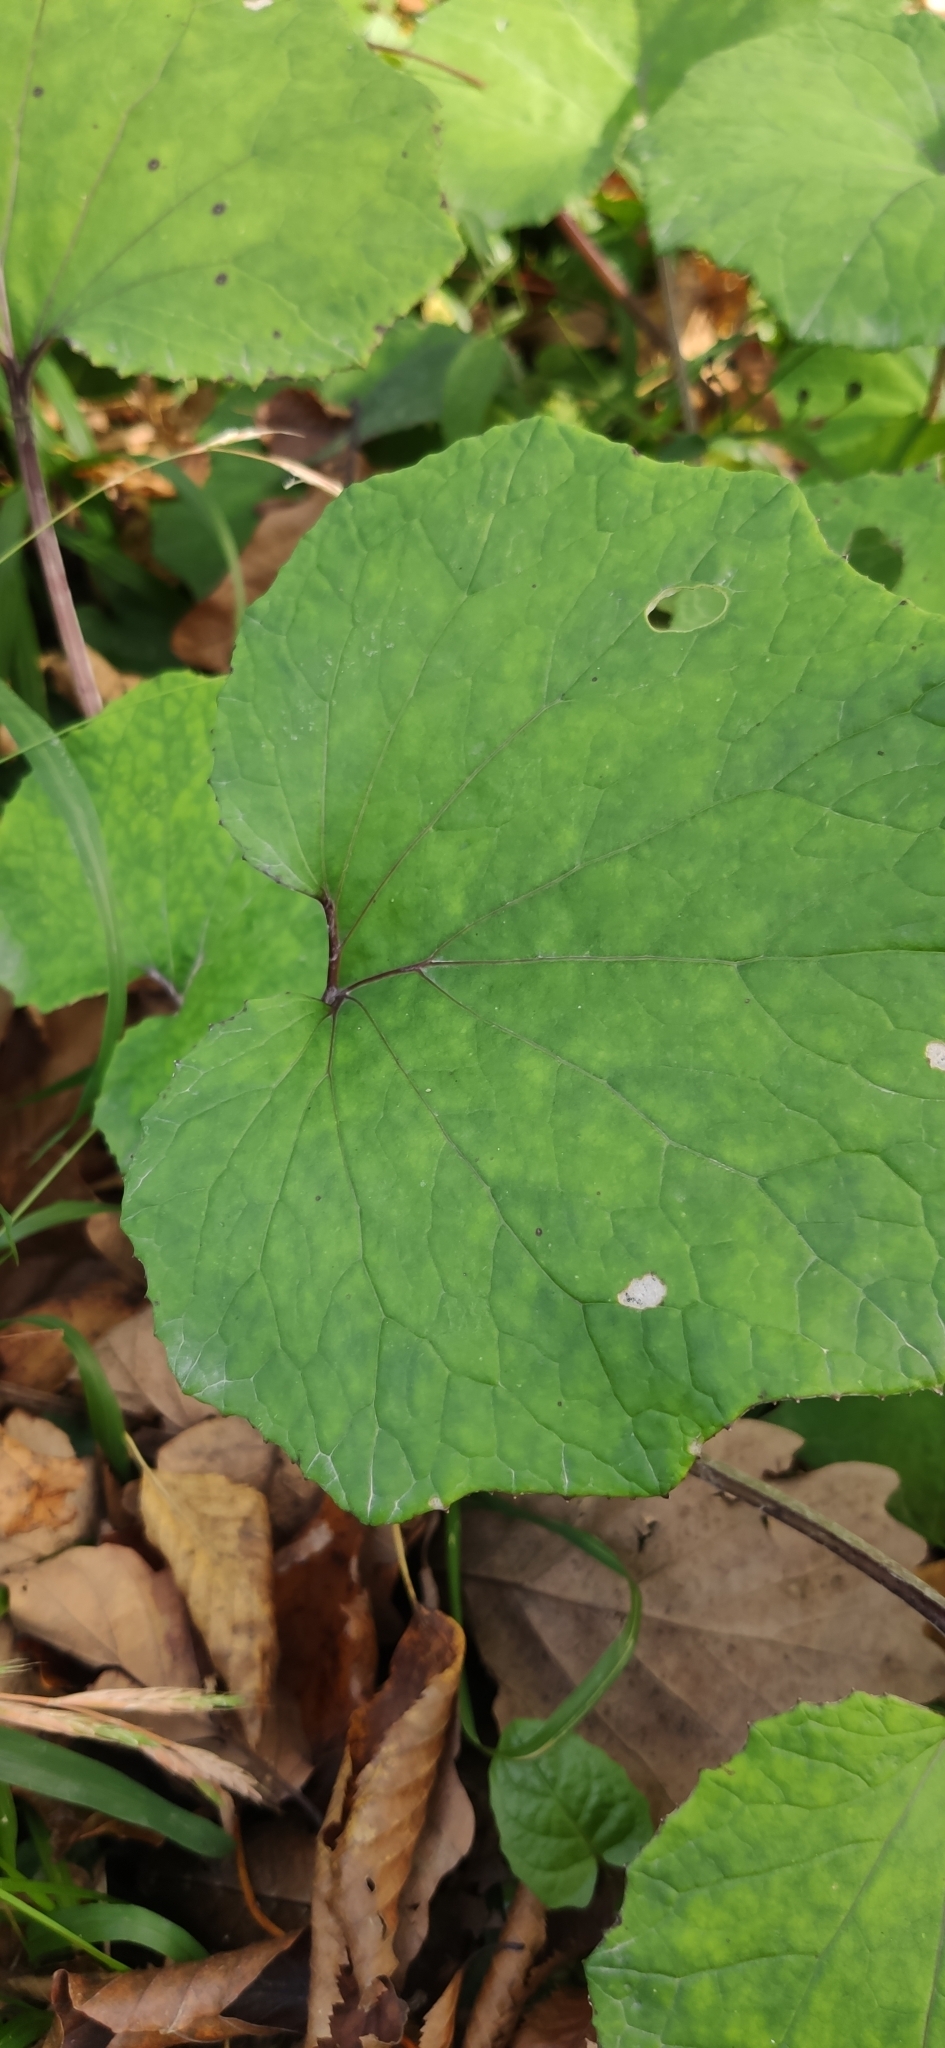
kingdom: Plantae
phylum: Tracheophyta
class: Magnoliopsida
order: Asterales
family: Asteraceae
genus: Tussilago
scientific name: Tussilago farfara
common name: Coltsfoot
